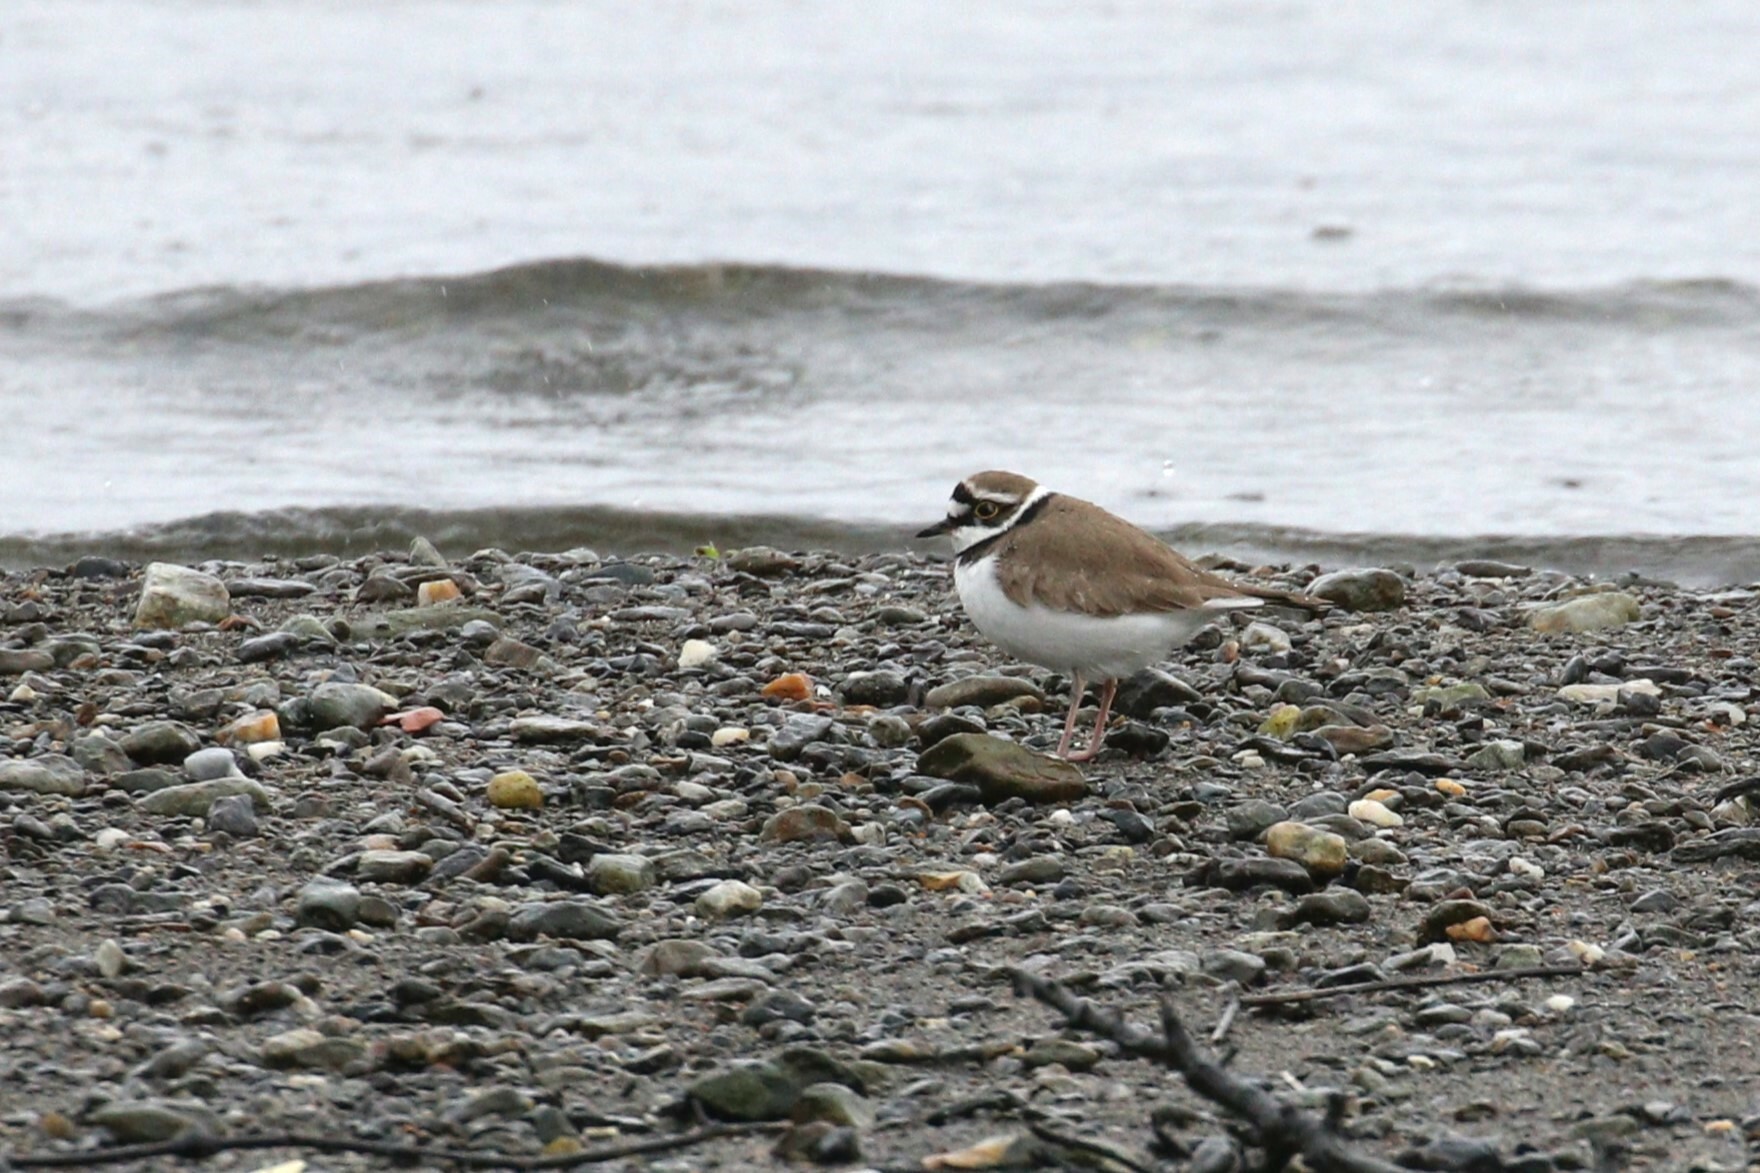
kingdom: Animalia
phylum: Chordata
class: Aves
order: Charadriiformes
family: Charadriidae
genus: Charadrius
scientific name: Charadrius dubius
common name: Little ringed plover
